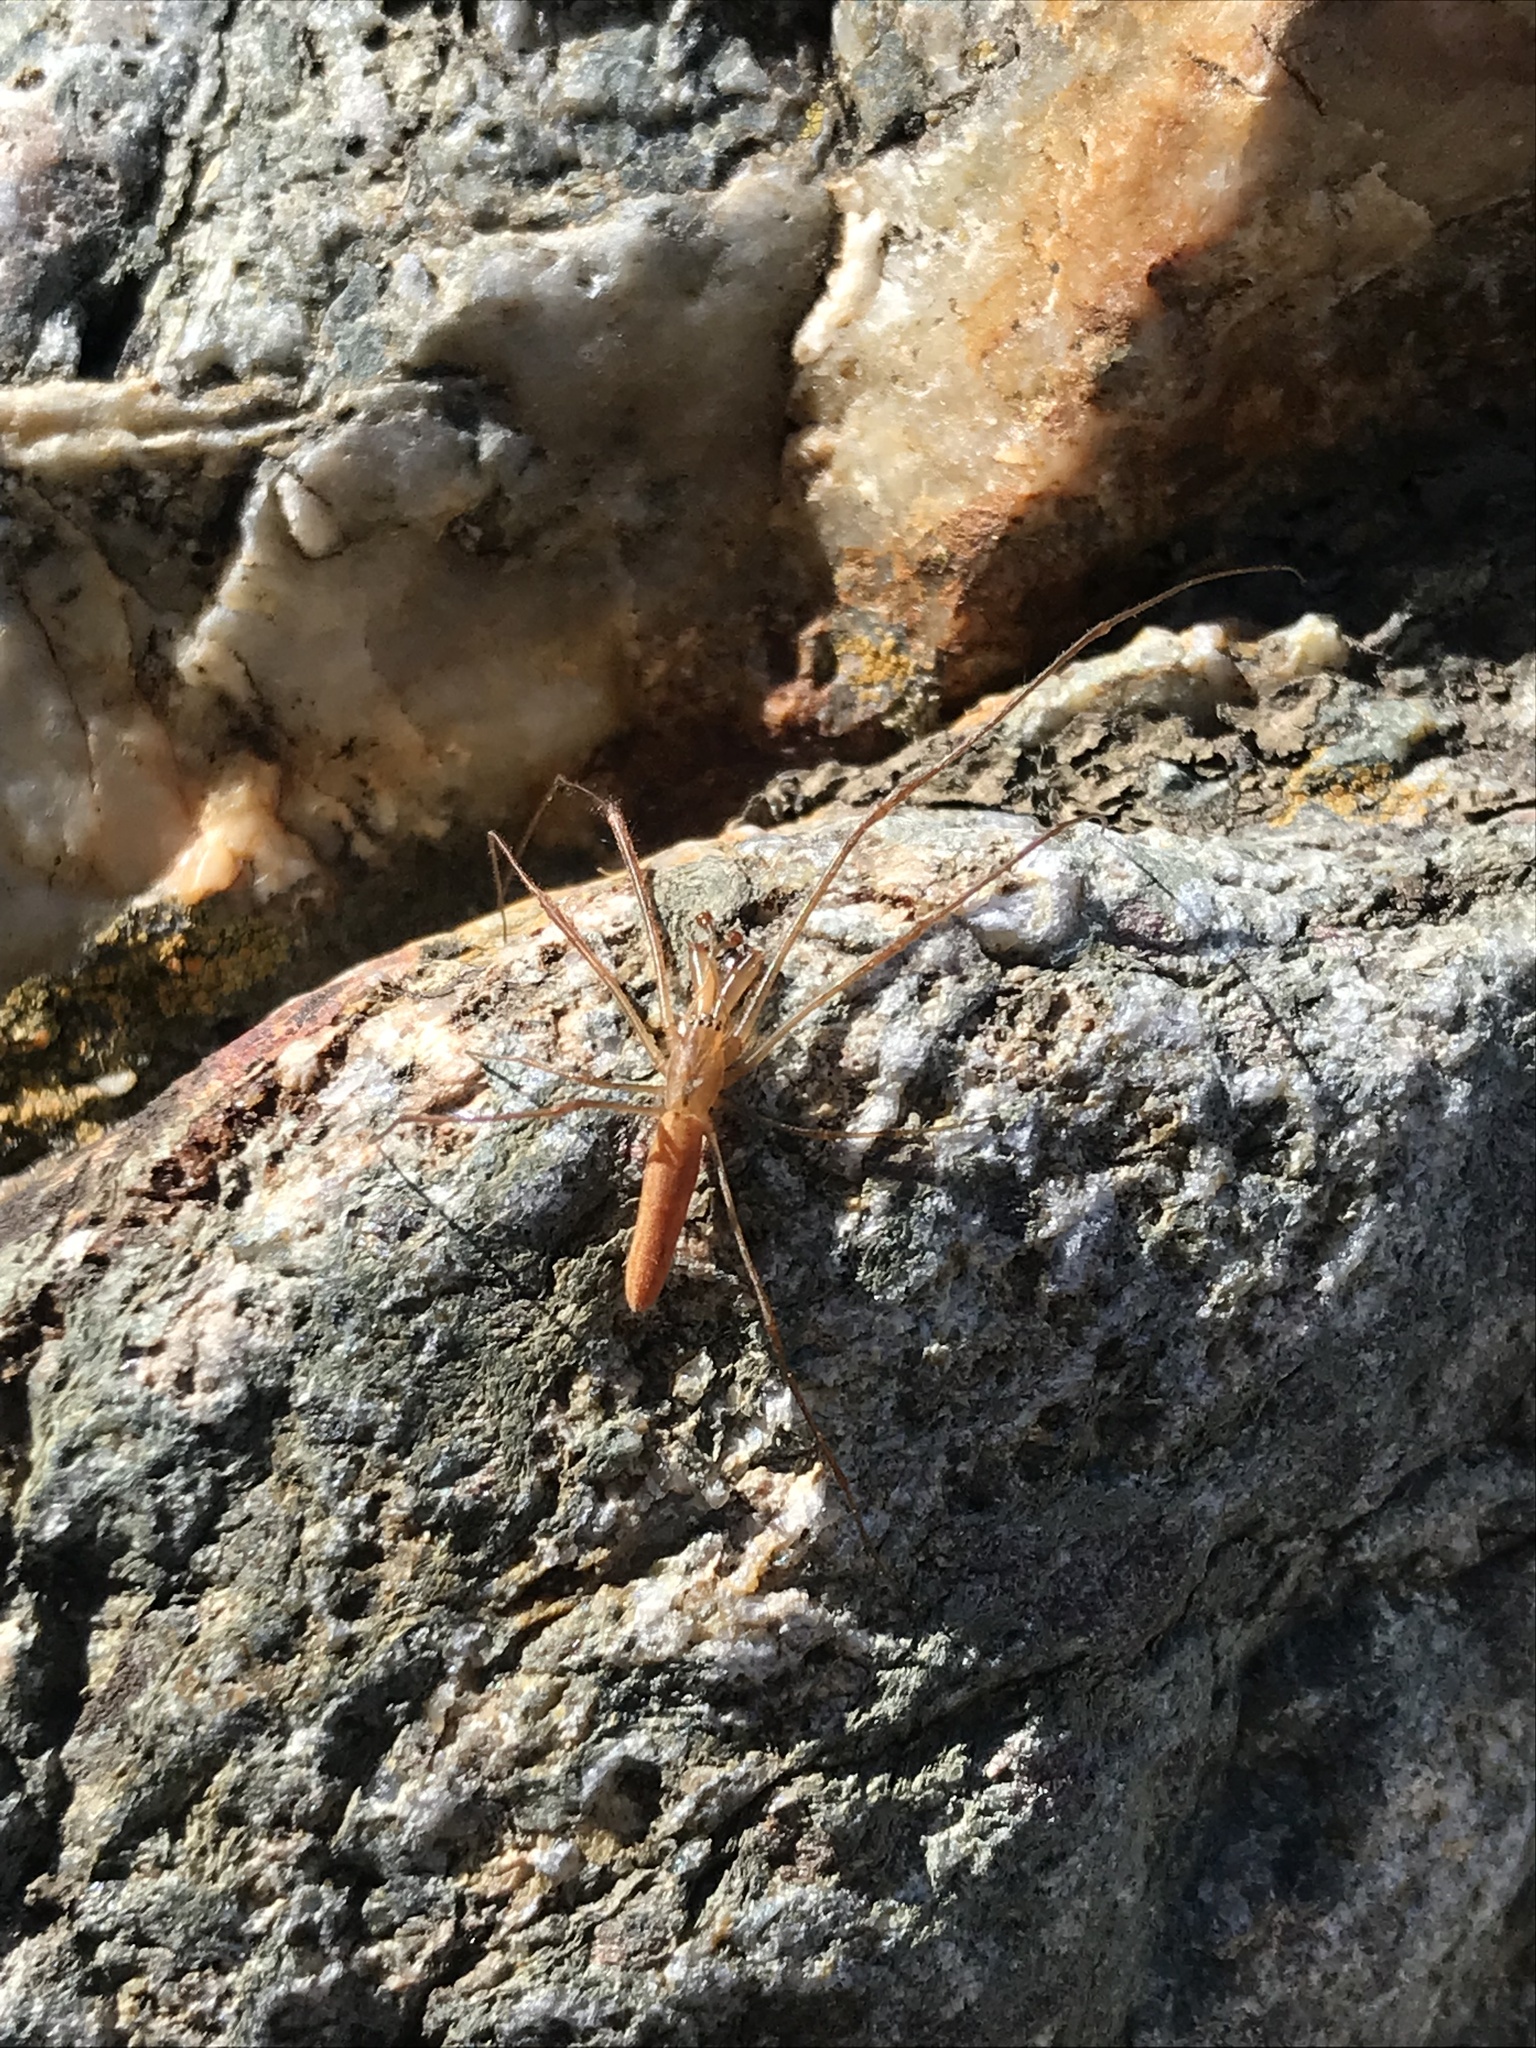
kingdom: Animalia
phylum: Arthropoda
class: Arachnida
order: Araneae
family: Tetragnathidae
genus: Tetragnatha
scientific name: Tetragnatha
